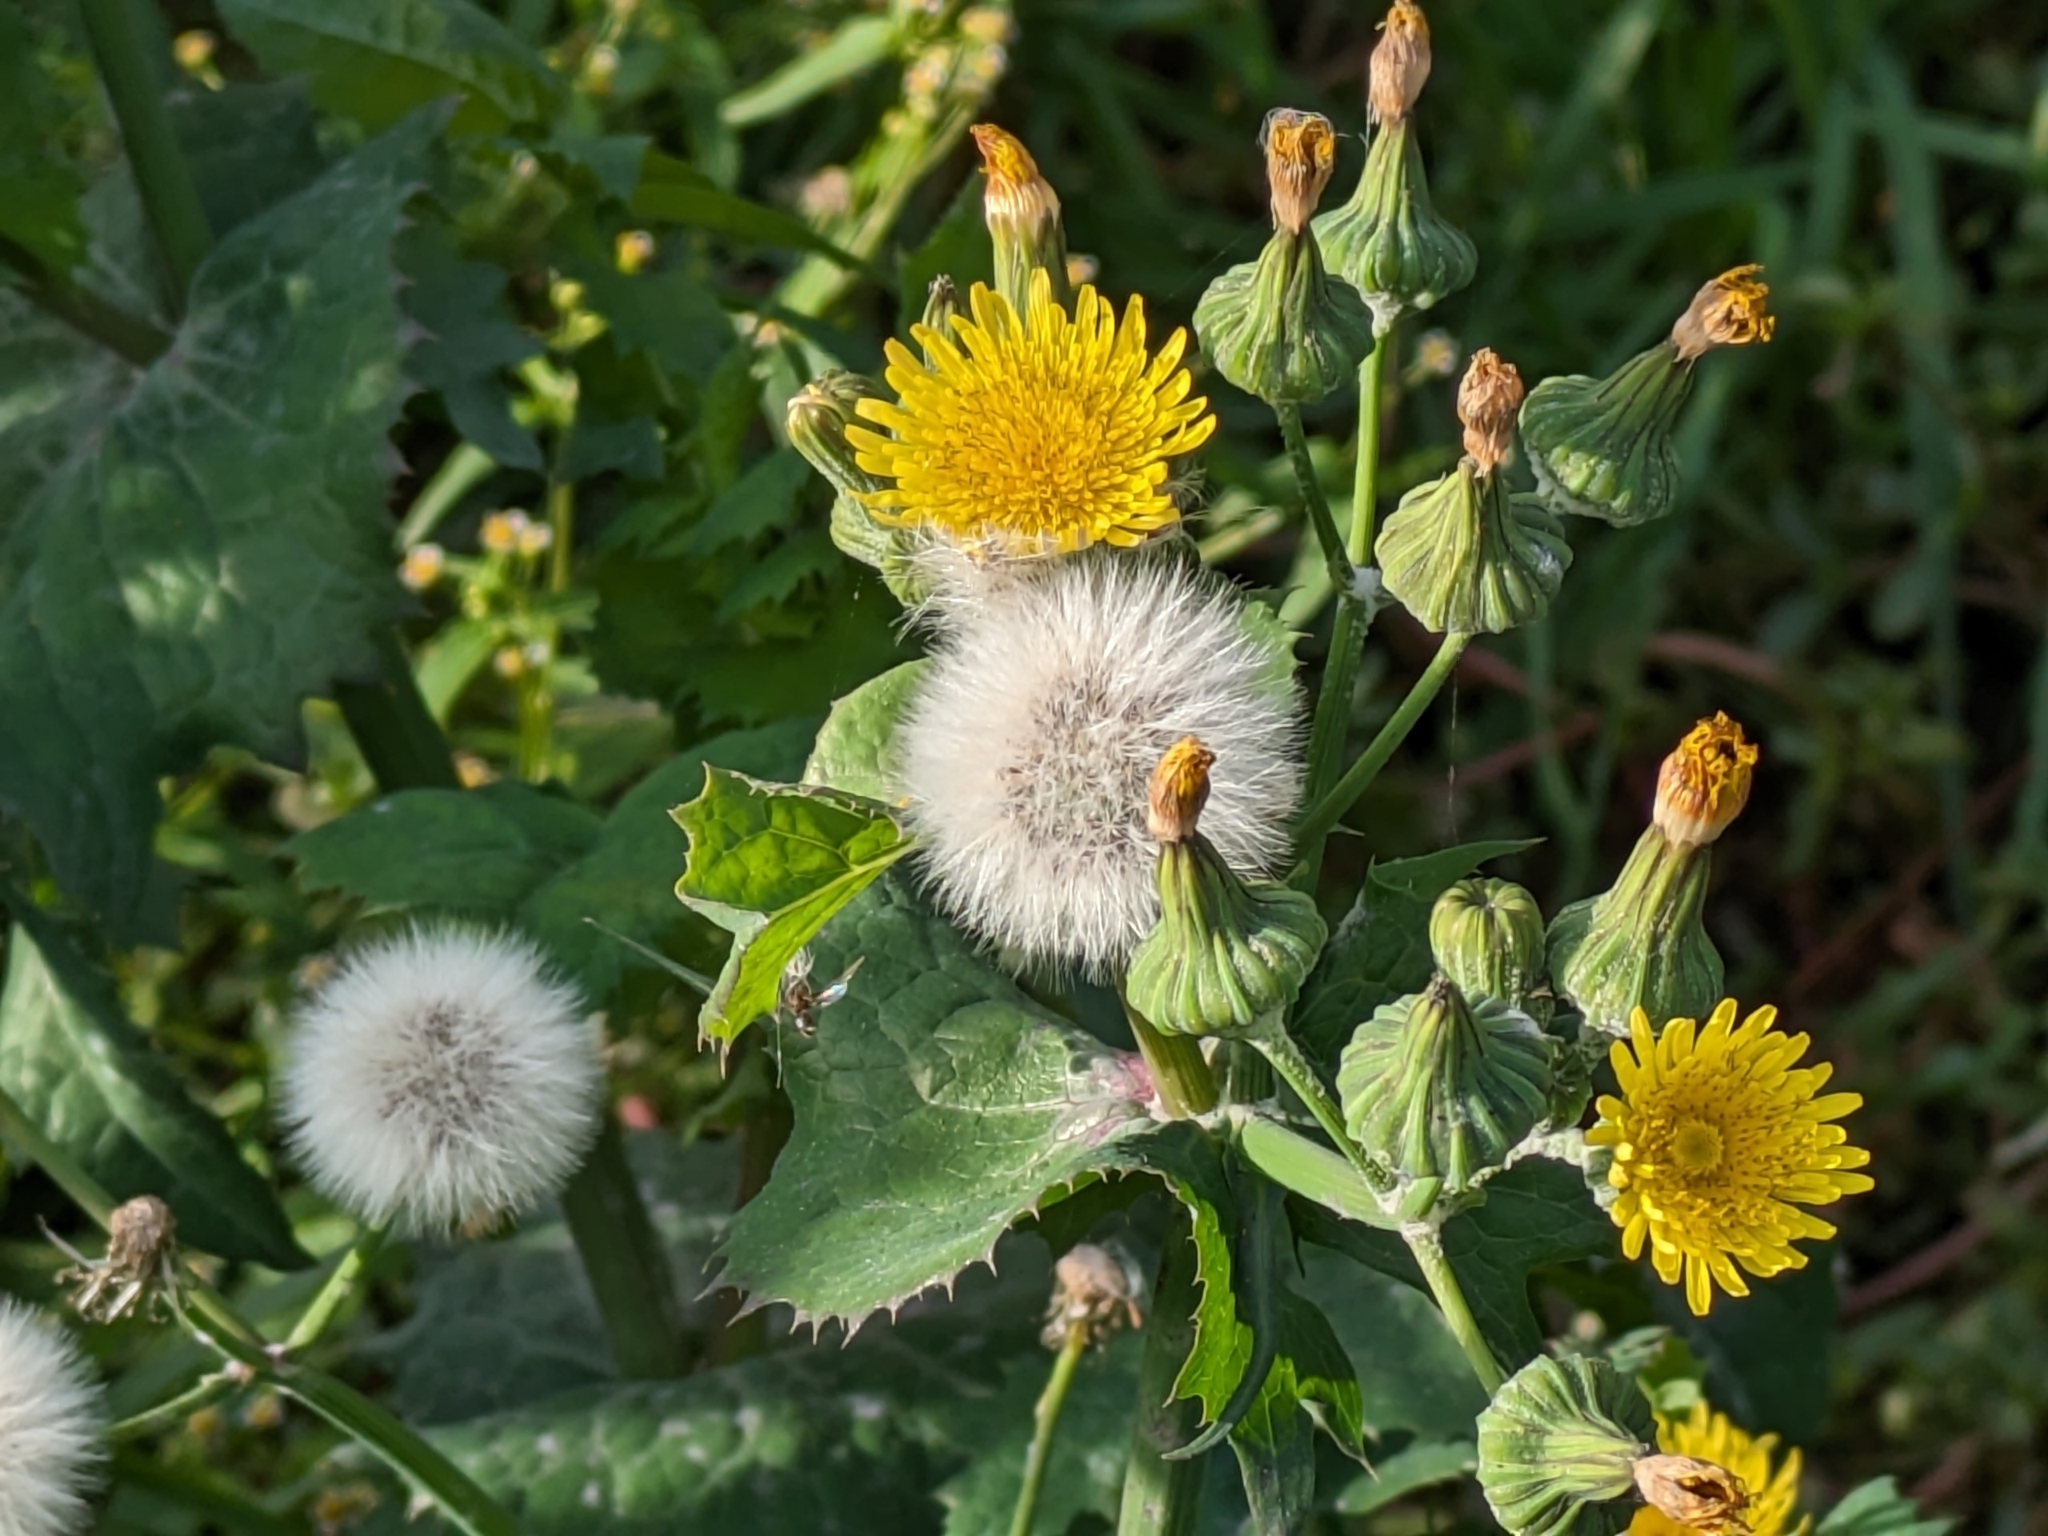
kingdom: Plantae
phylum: Tracheophyta
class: Magnoliopsida
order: Asterales
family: Asteraceae
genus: Sonchus
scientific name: Sonchus oleraceus
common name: Common sowthistle
